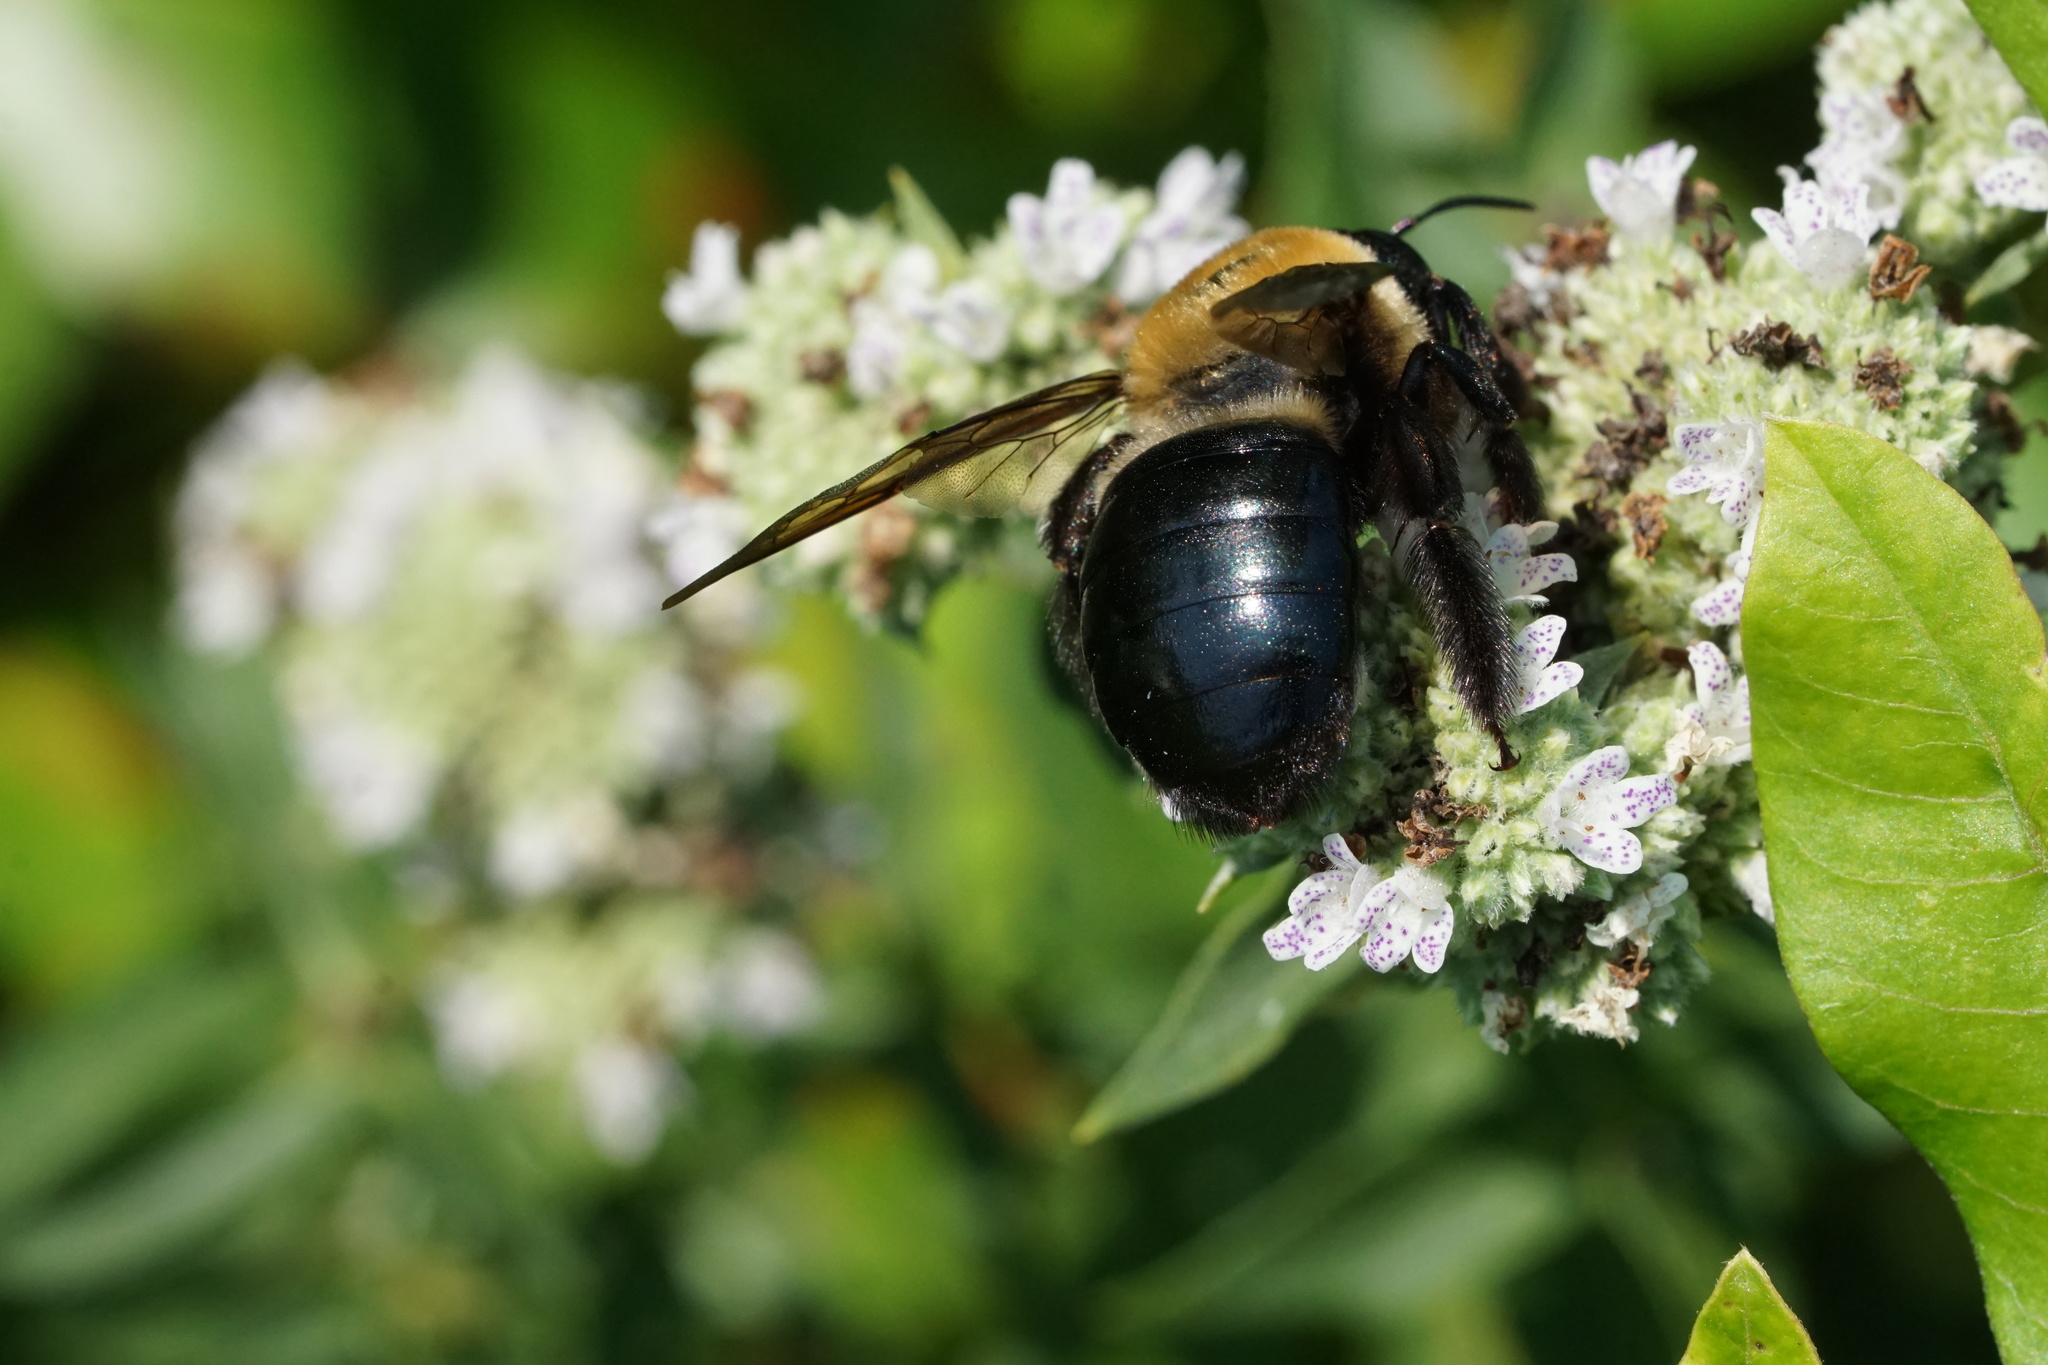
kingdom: Animalia
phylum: Arthropoda
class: Insecta
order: Hymenoptera
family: Apidae
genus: Xylocopa
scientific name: Xylocopa virginica
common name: Carpenter bee
